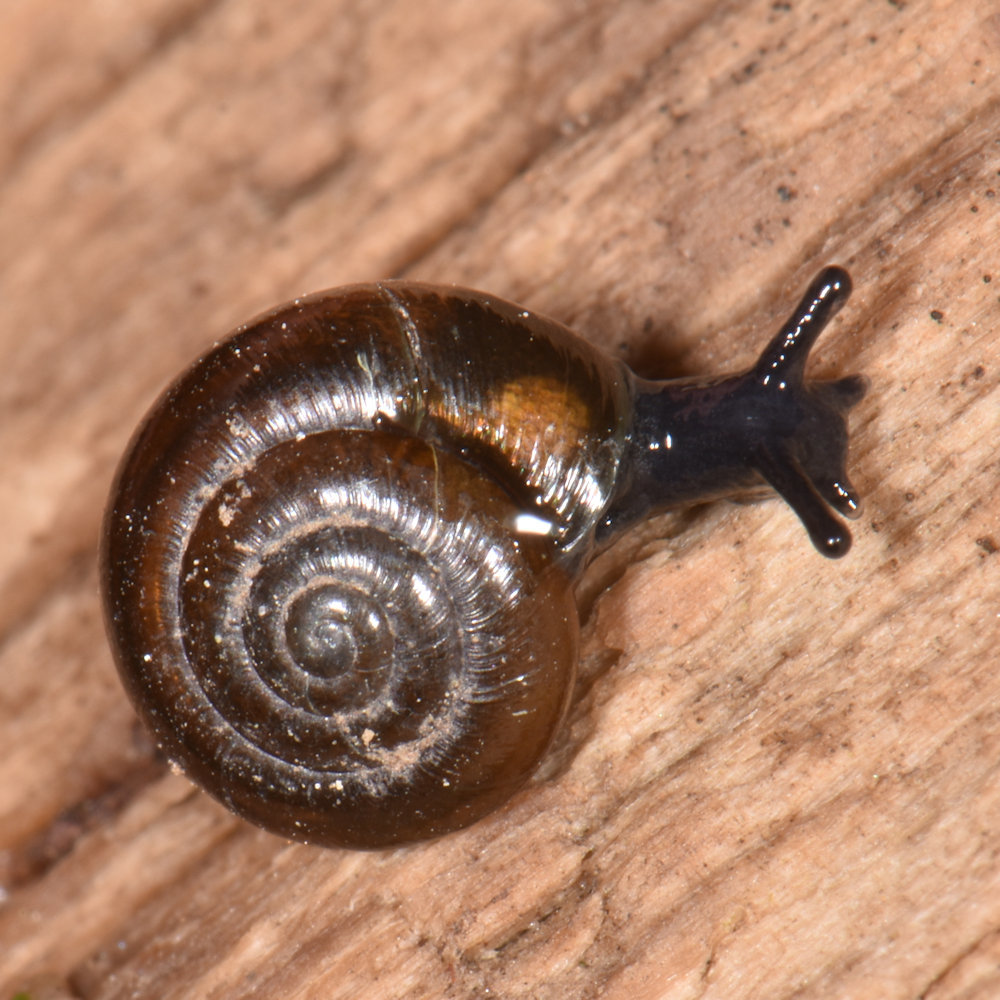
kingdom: Animalia
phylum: Mollusca
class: Gastropoda
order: Stylommatophora
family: Gastrodontidae
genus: Zonitoides
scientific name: Zonitoides nitidus
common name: Shiny glass snail
